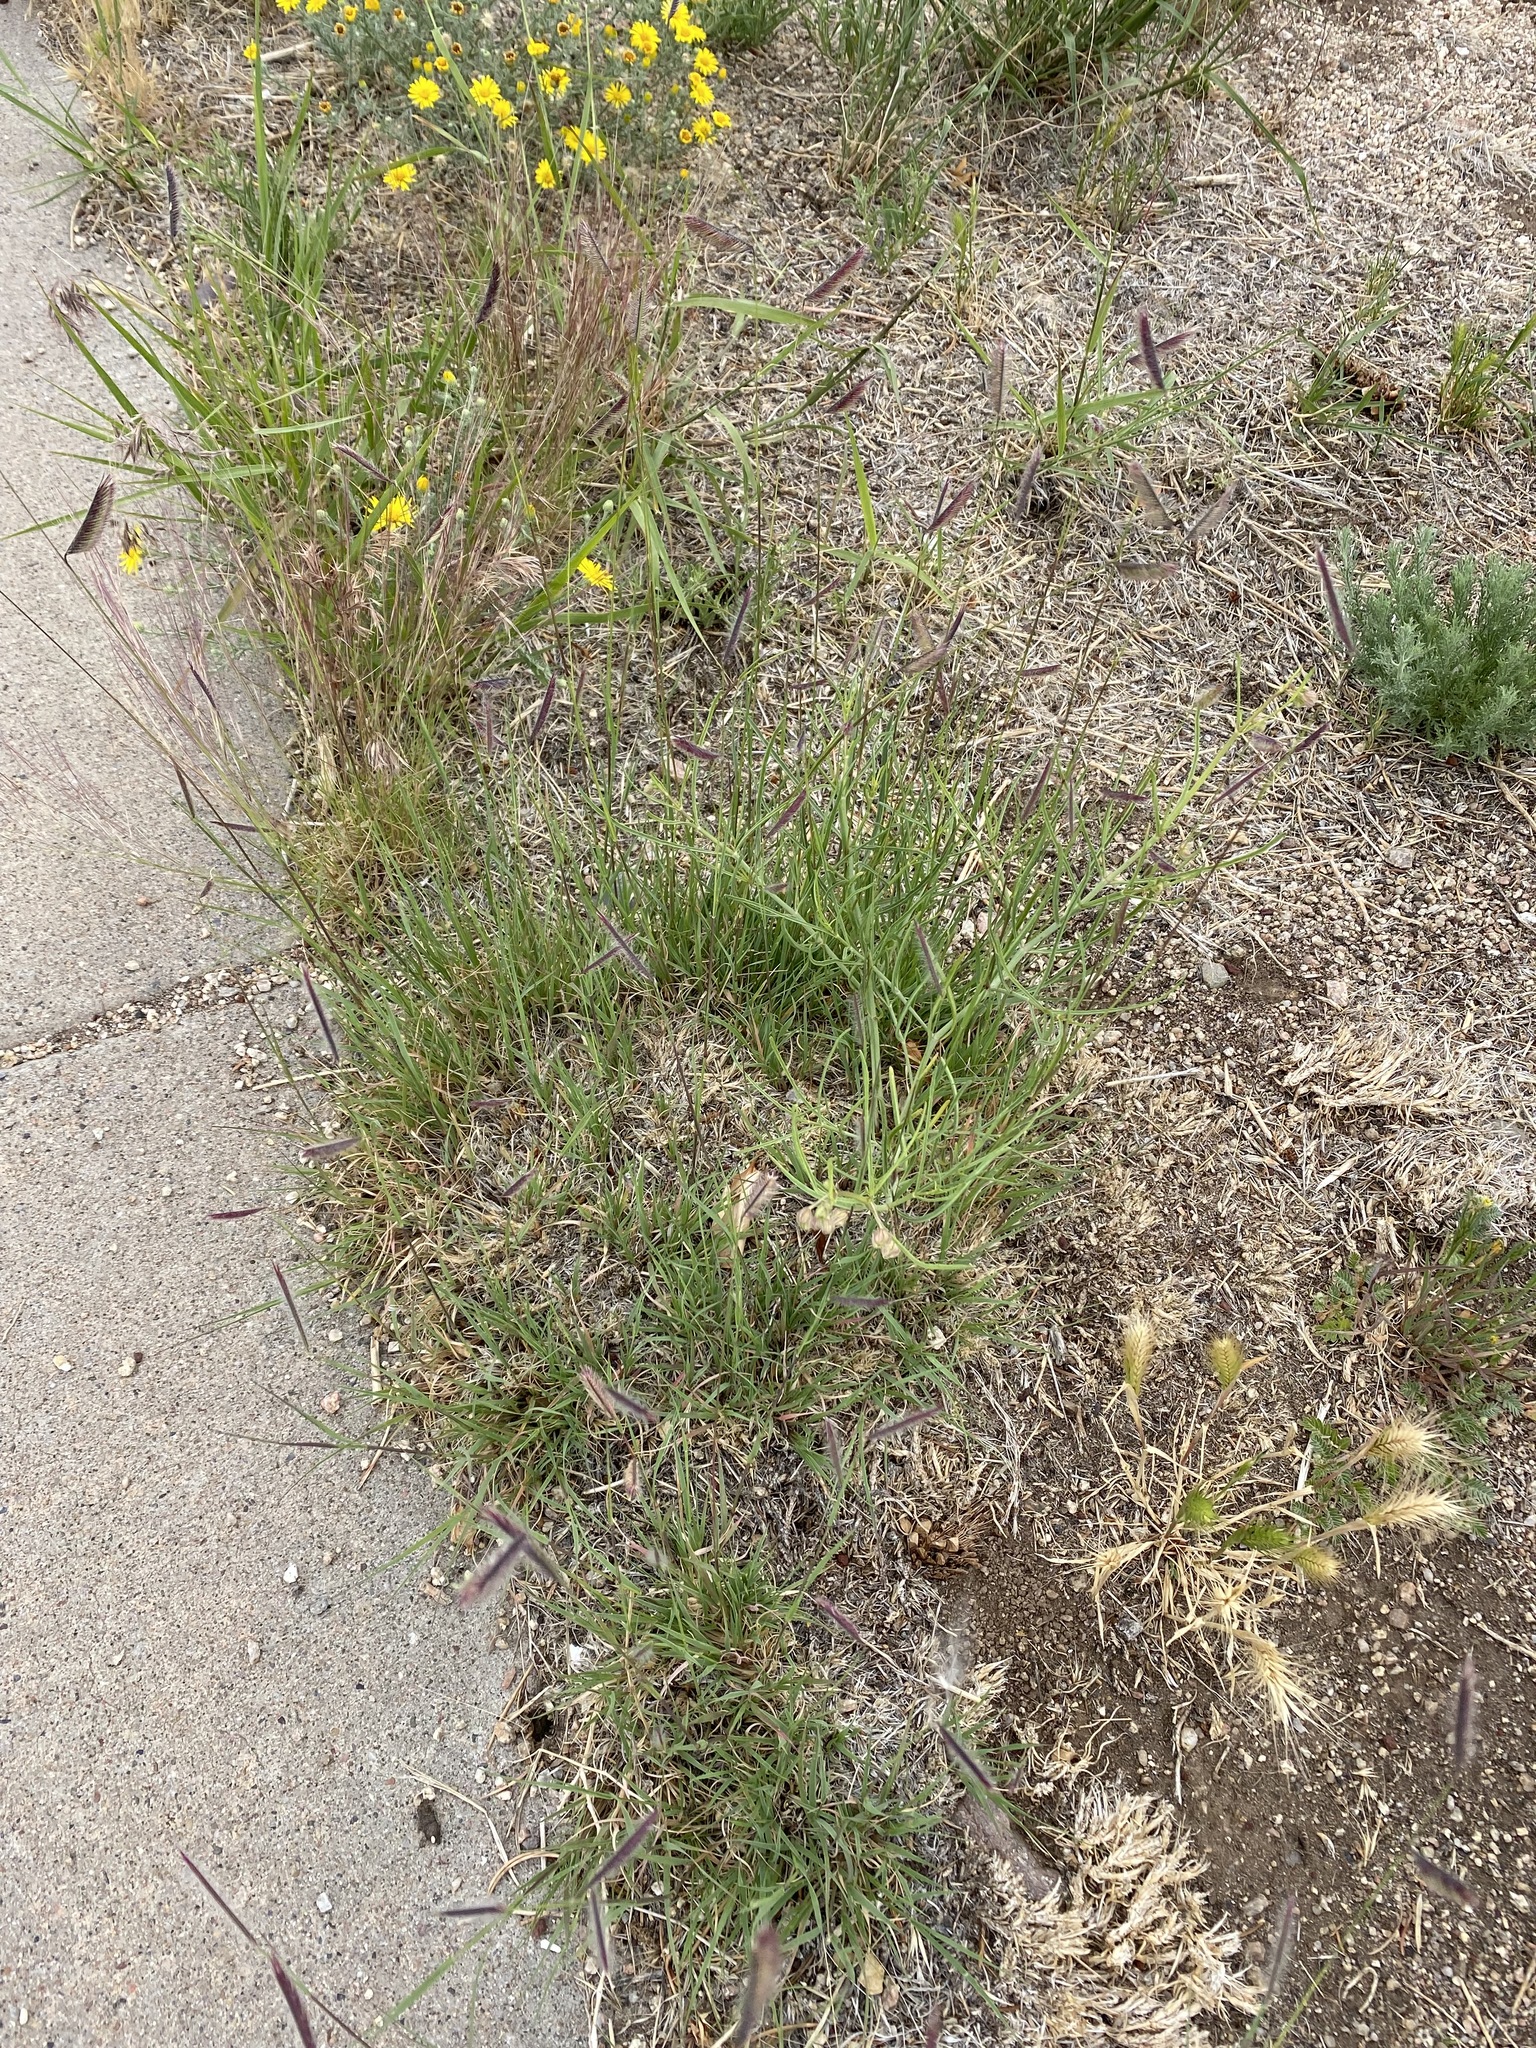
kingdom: Plantae
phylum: Tracheophyta
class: Liliopsida
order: Poales
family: Poaceae
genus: Hordeum
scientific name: Hordeum murinum
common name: Wall barley
